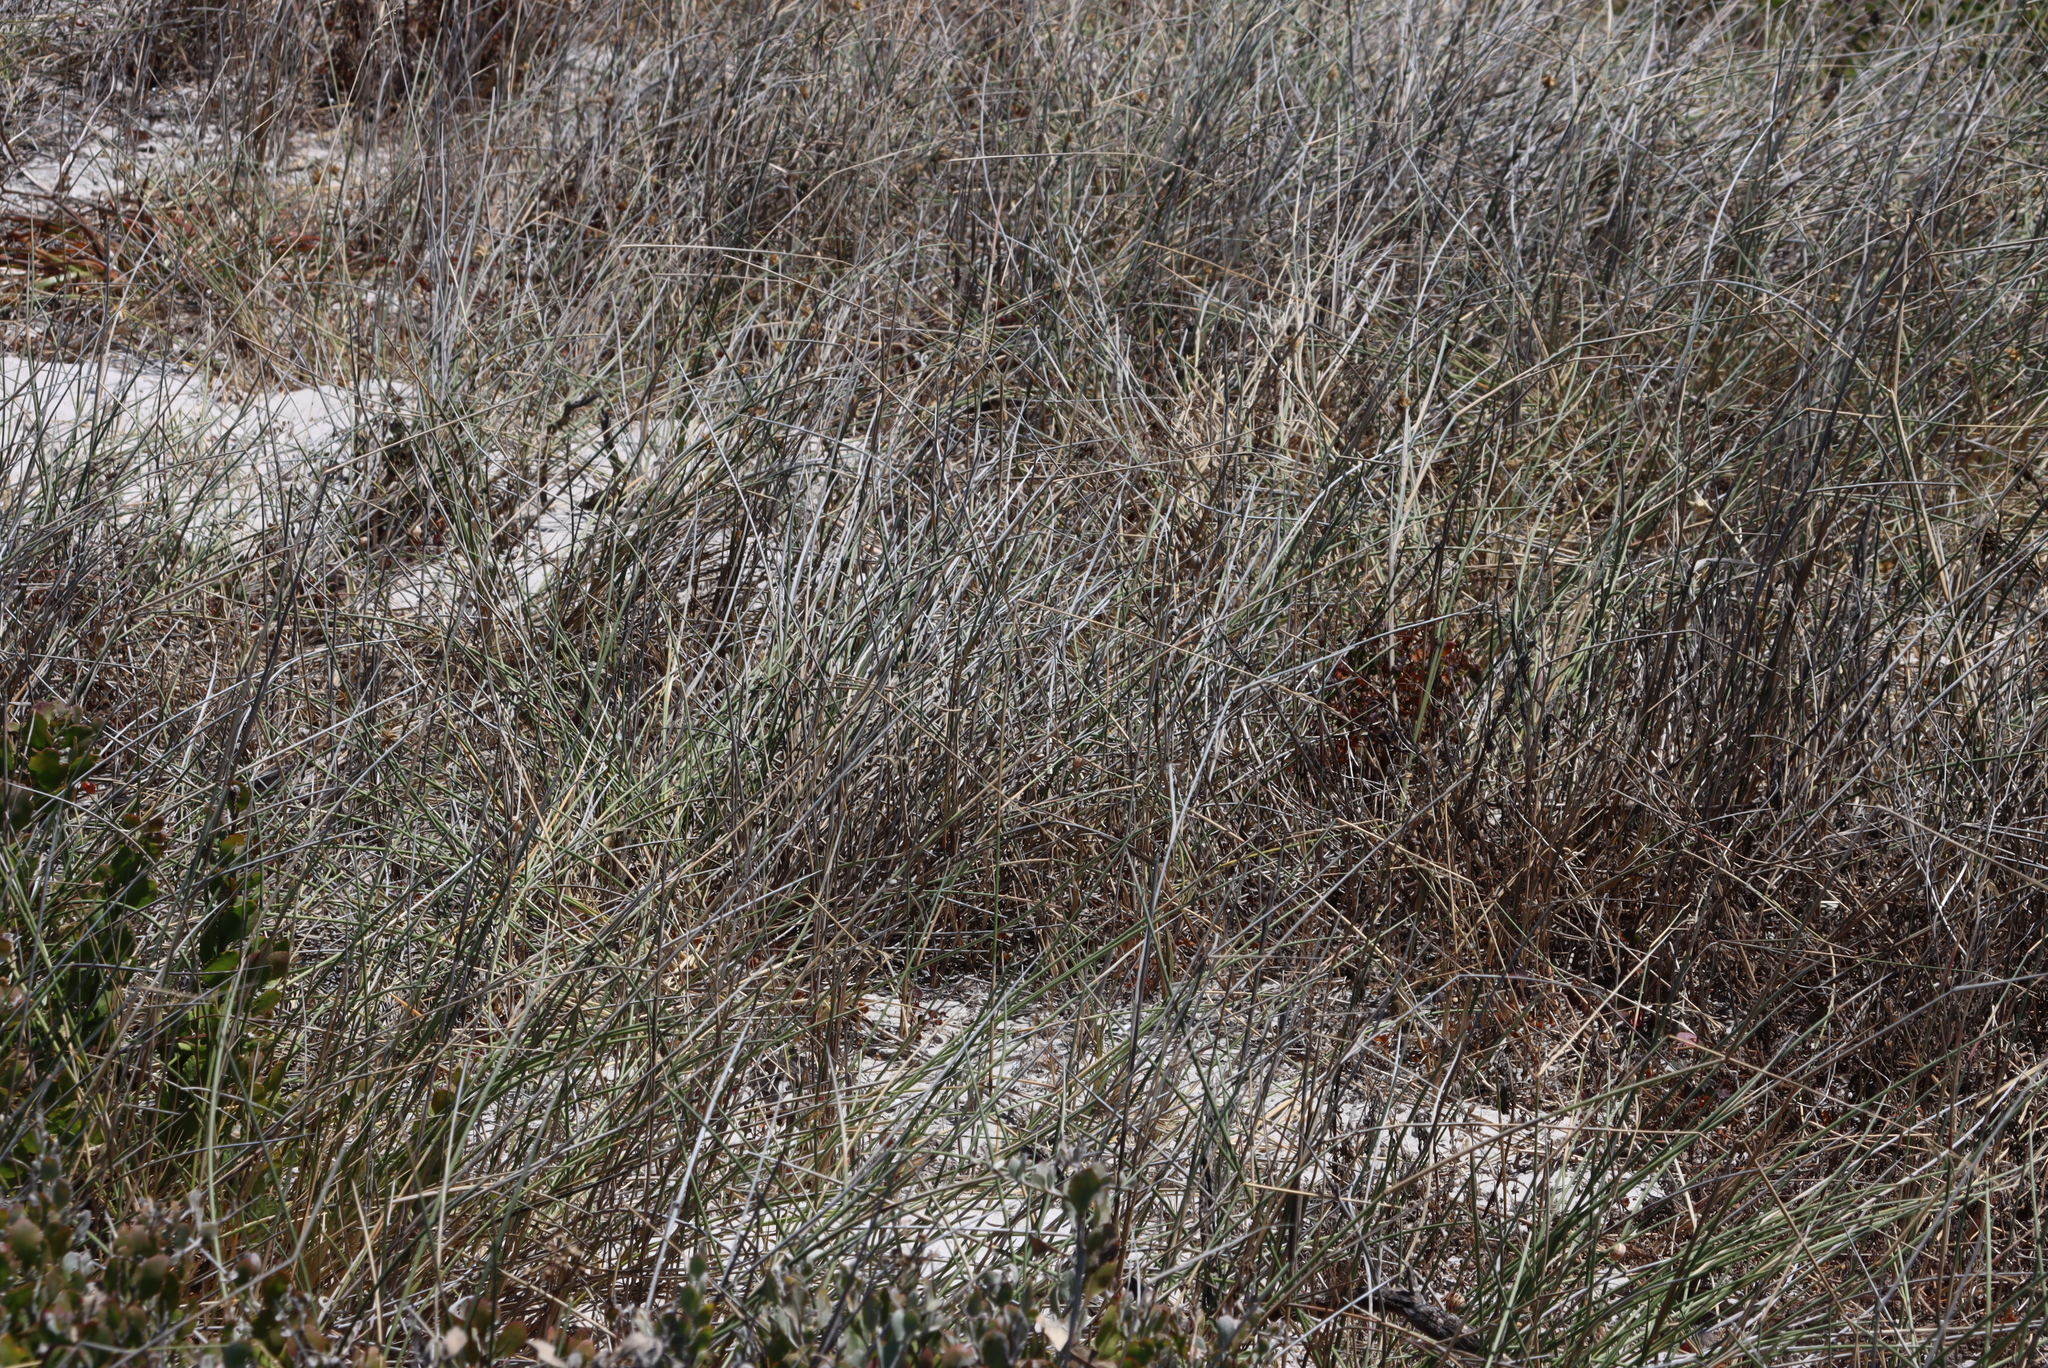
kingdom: Plantae
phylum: Tracheophyta
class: Liliopsida
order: Poales
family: Poaceae
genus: Ehrharta
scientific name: Ehrharta villosa
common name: Pyp grass
